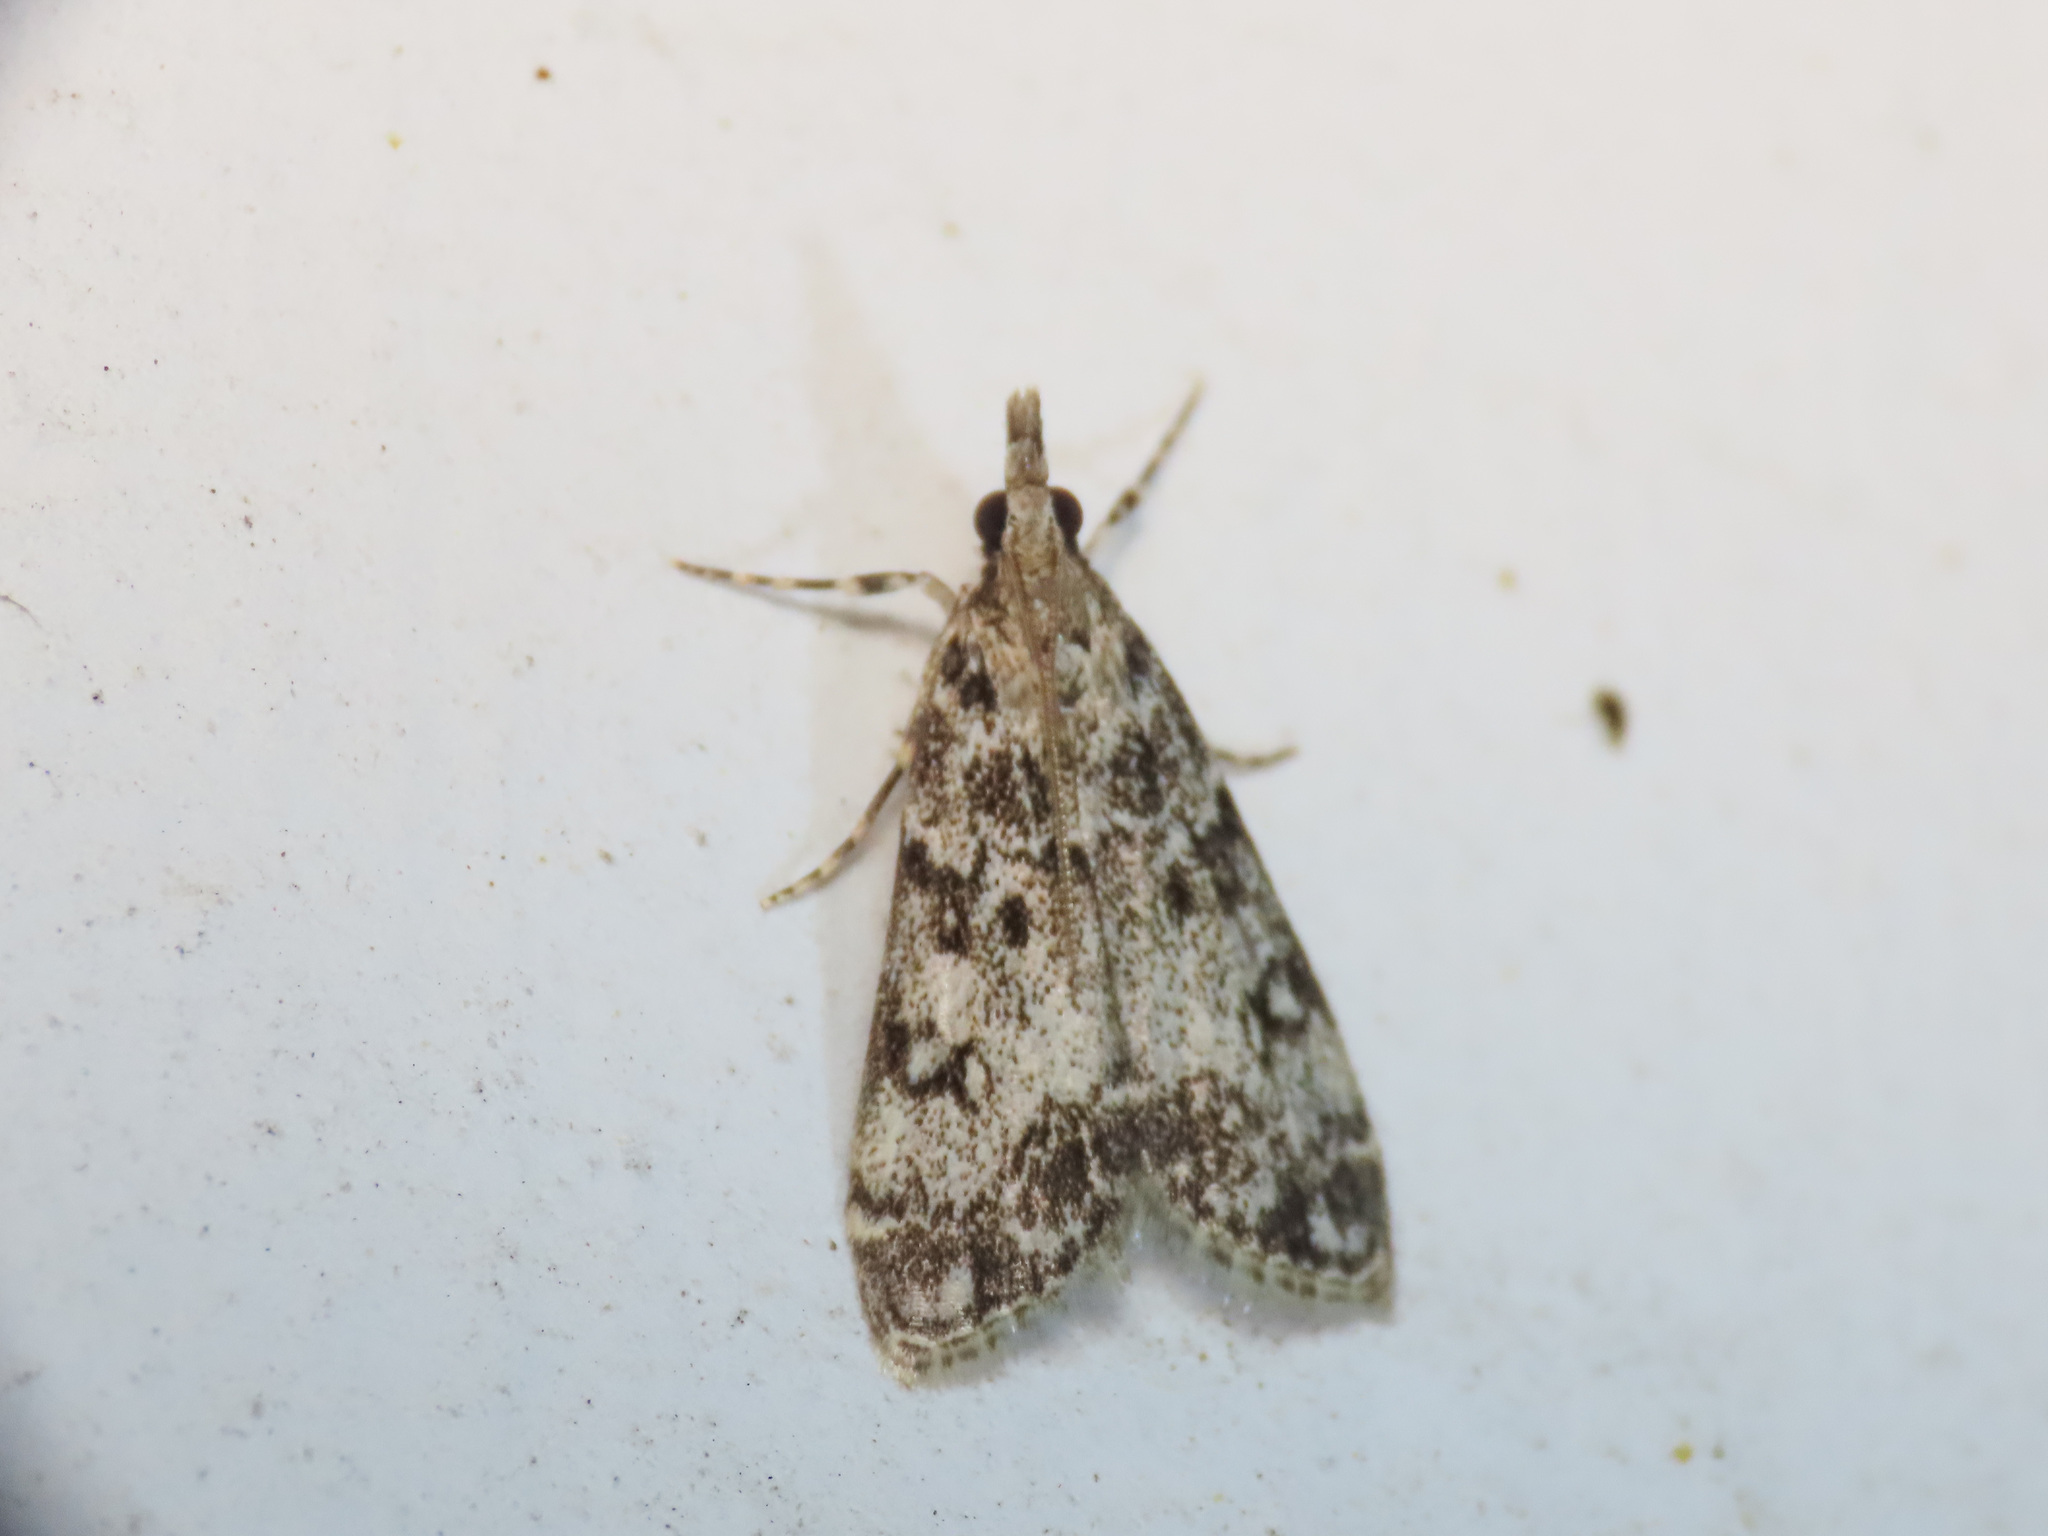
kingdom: Animalia
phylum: Arthropoda
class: Insecta
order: Lepidoptera
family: Crambidae
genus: Eudonia
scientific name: Eudonia lacustrata
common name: Little grey
